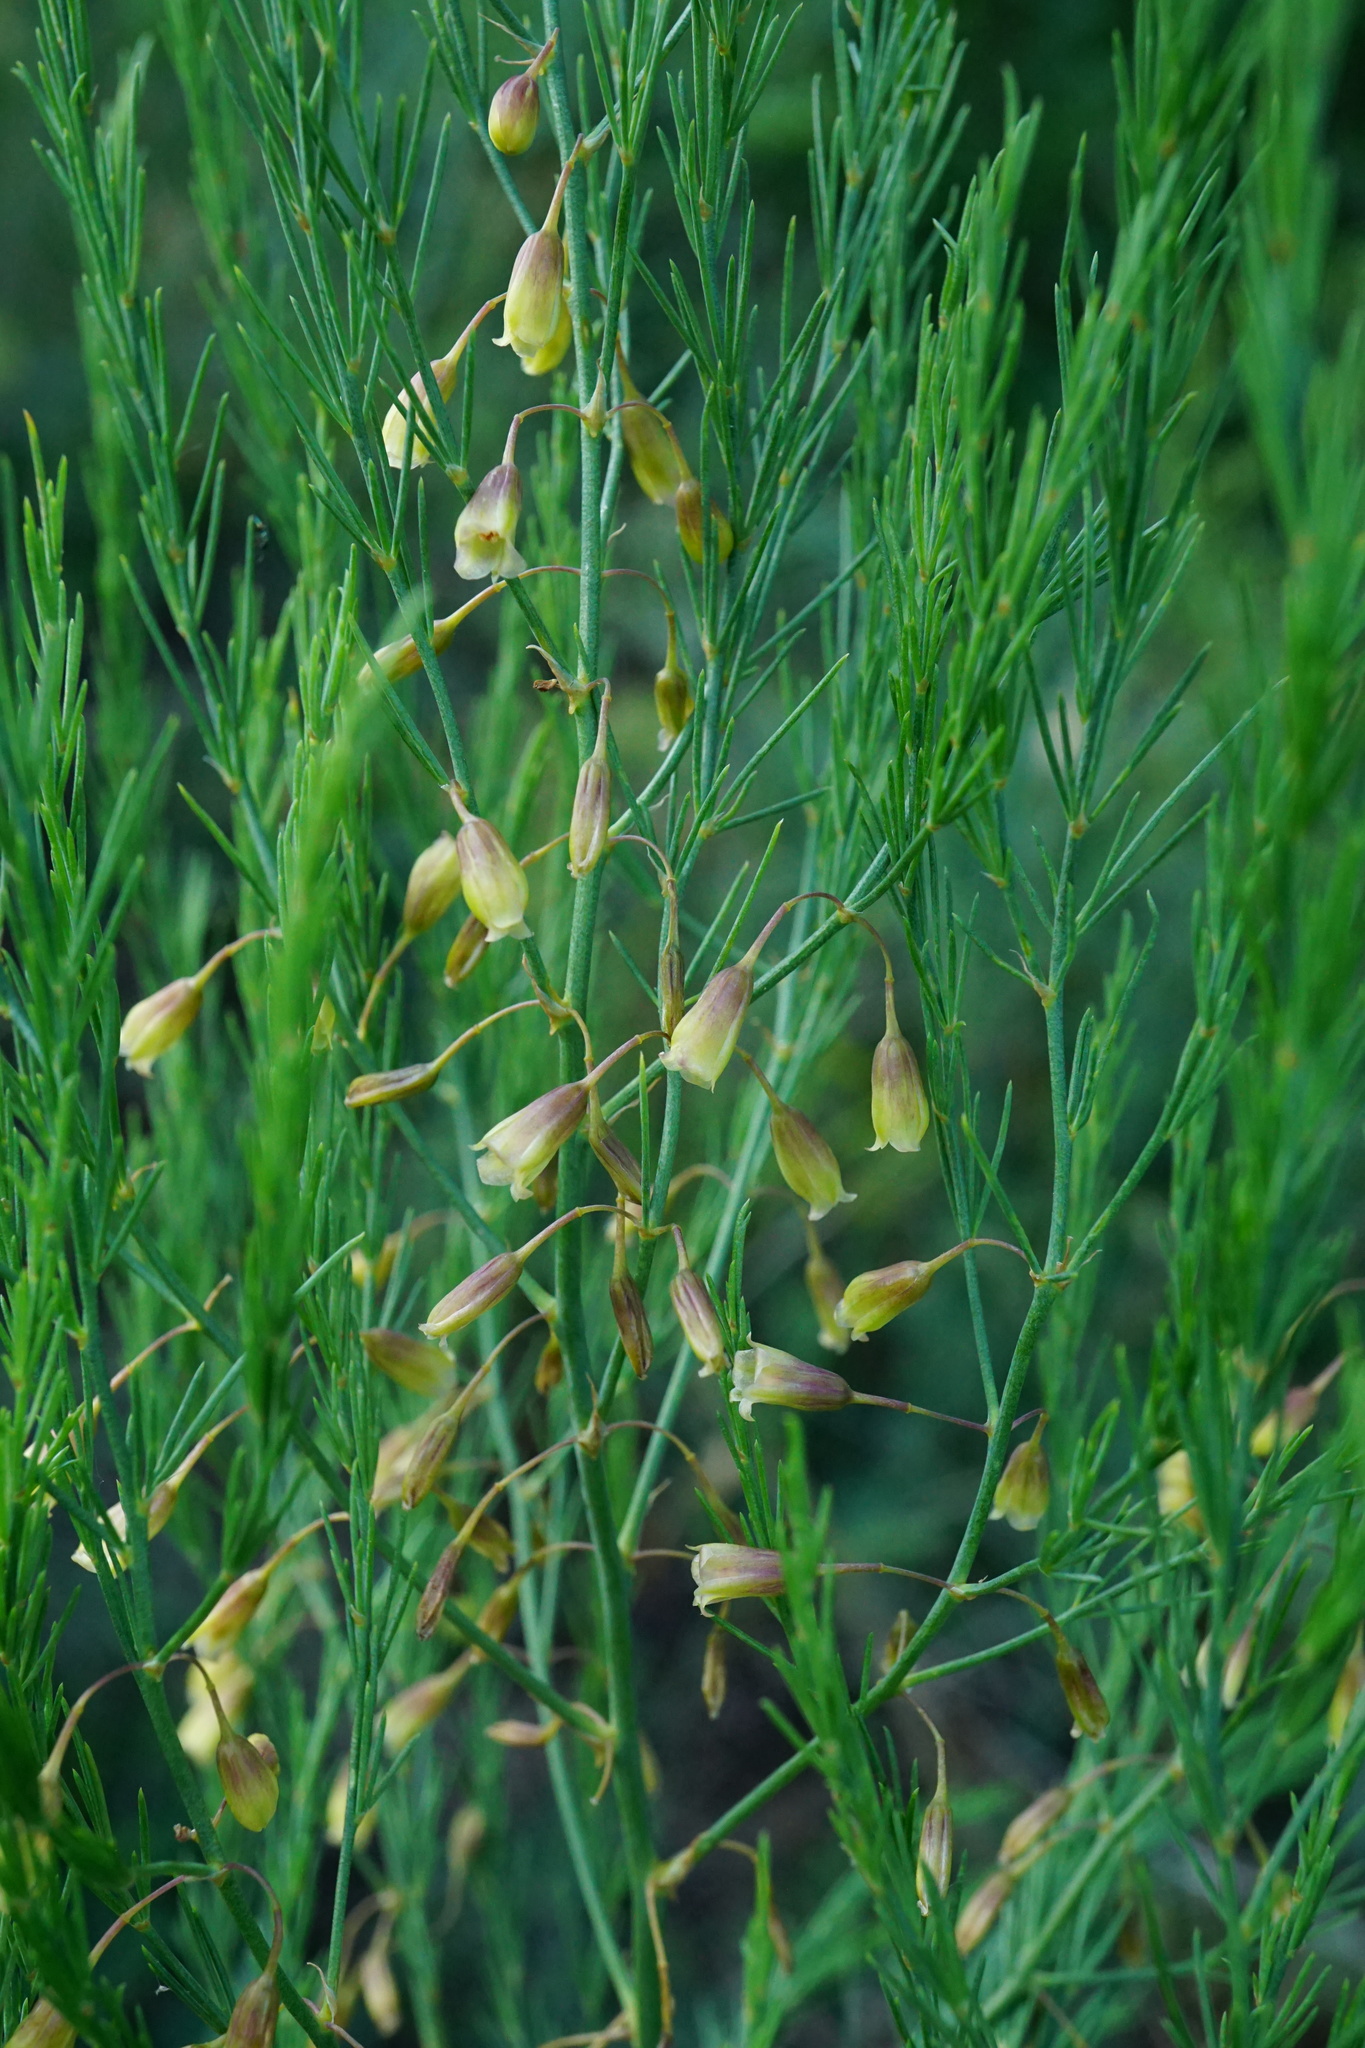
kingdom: Plantae
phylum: Tracheophyta
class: Liliopsida
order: Asparagales
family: Asparagaceae
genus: Asparagus
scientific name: Asparagus officinalis
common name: Garden asparagus
